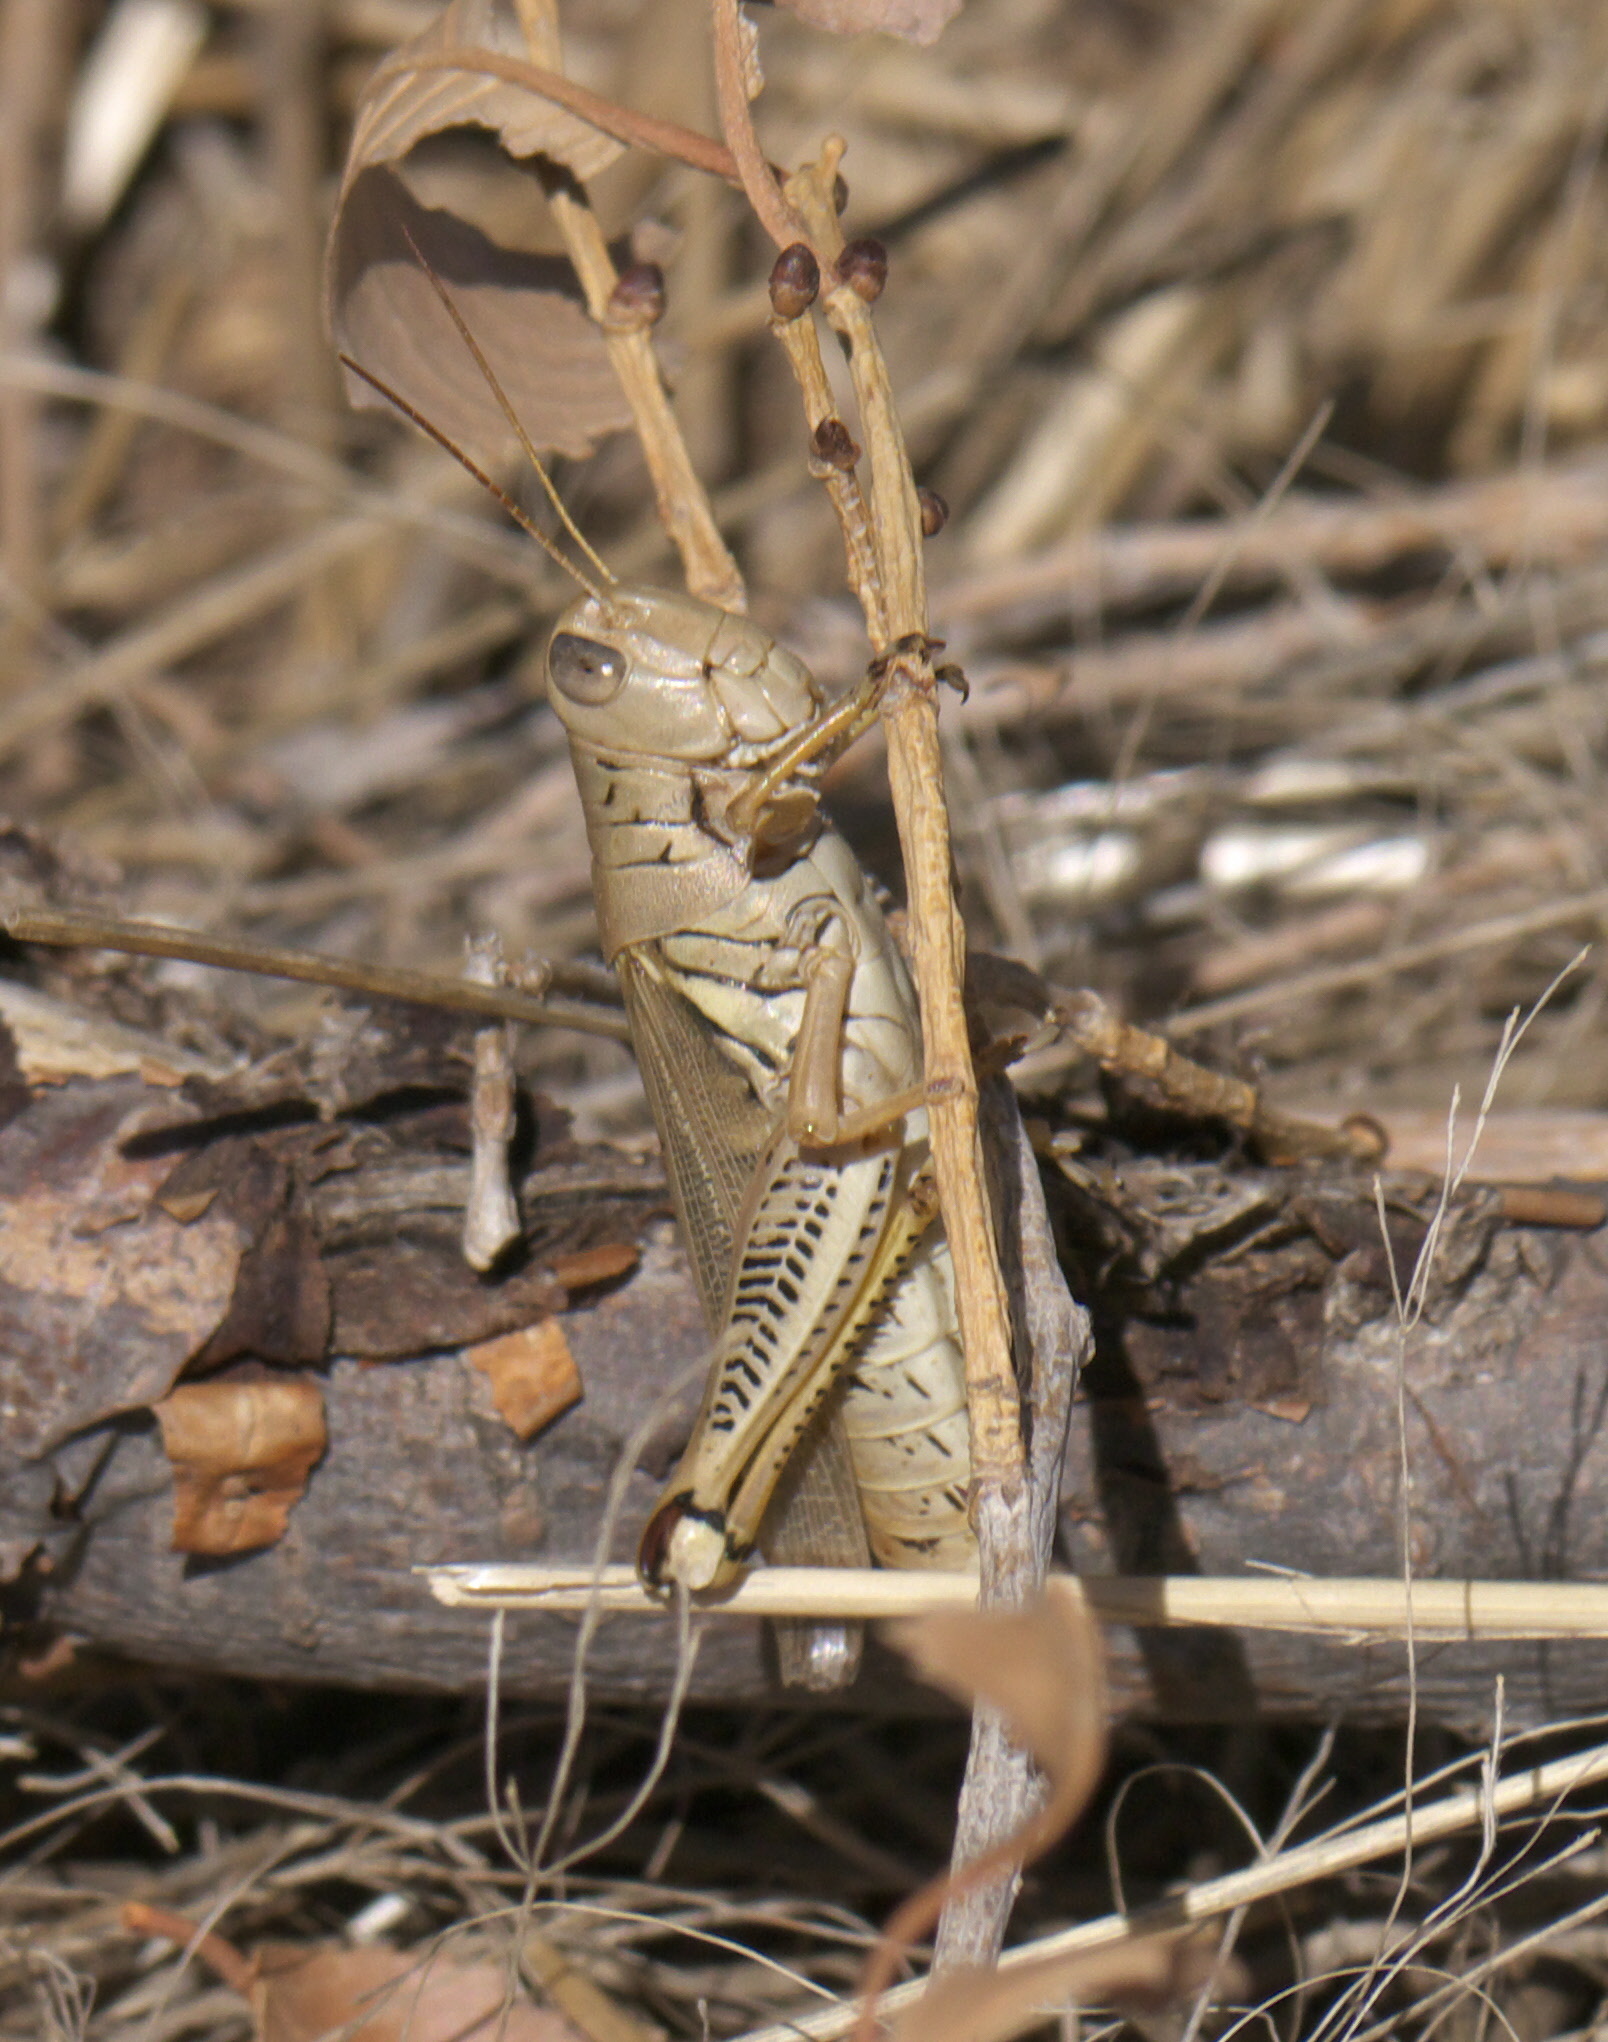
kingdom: Animalia
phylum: Arthropoda
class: Insecta
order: Orthoptera
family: Acrididae
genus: Melanoplus
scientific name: Melanoplus differentialis
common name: Differential grasshopper
